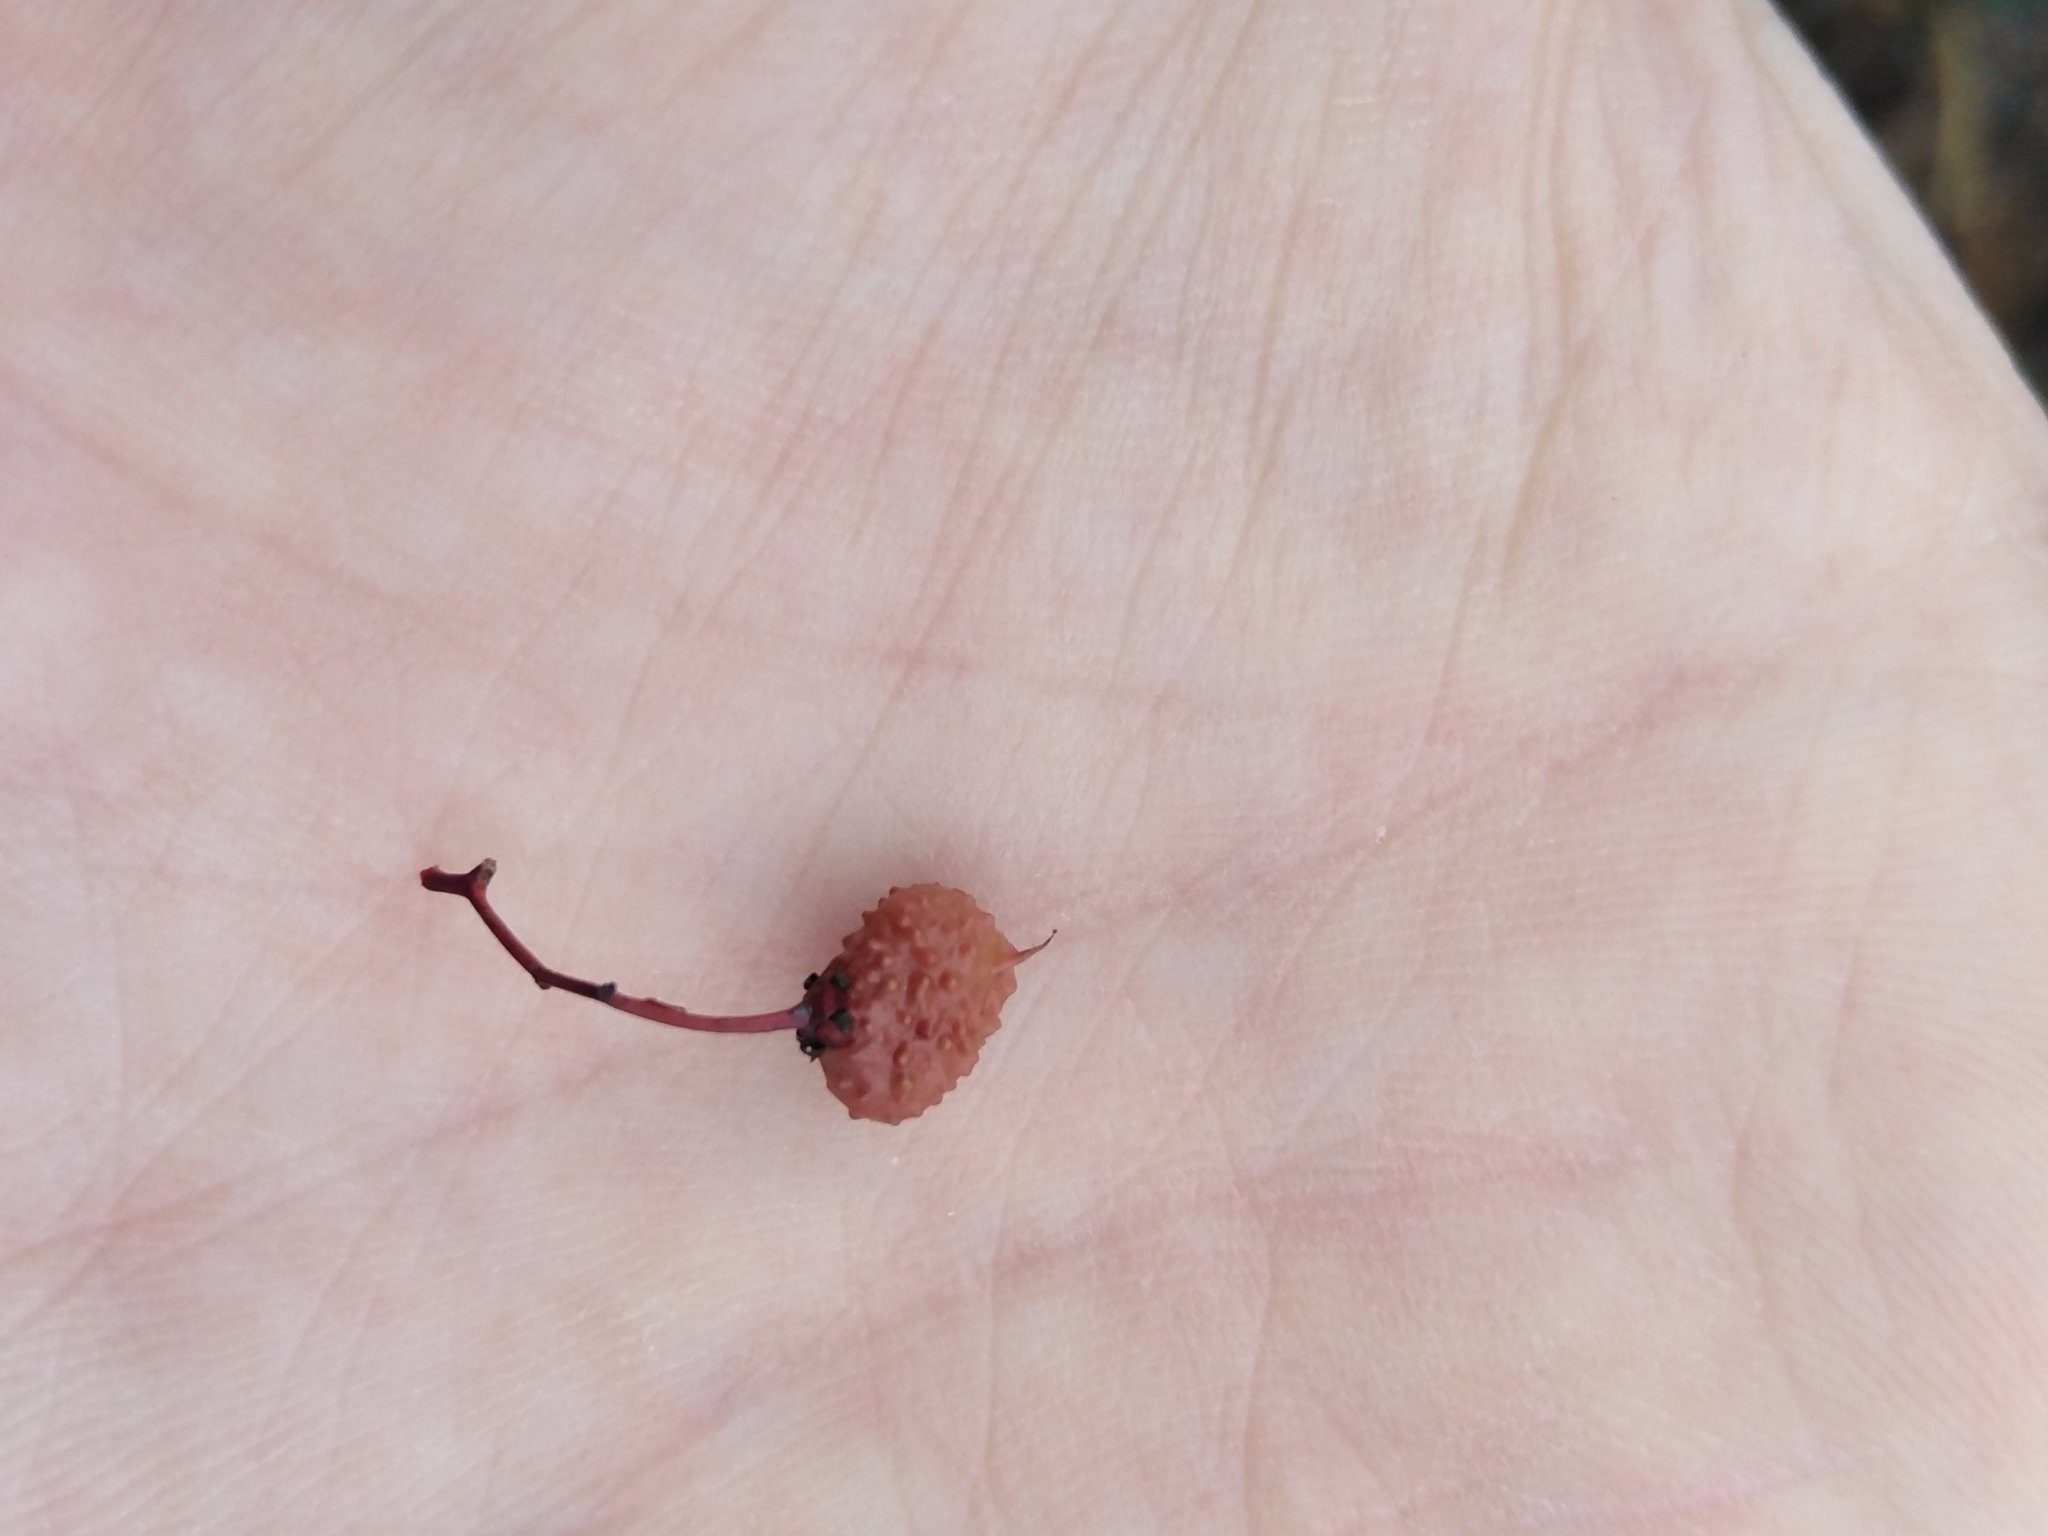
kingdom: Plantae
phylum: Tracheophyta
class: Magnoliopsida
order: Sapindales
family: Anacardiaceae
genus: Searsia
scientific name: Searsia dissecta
